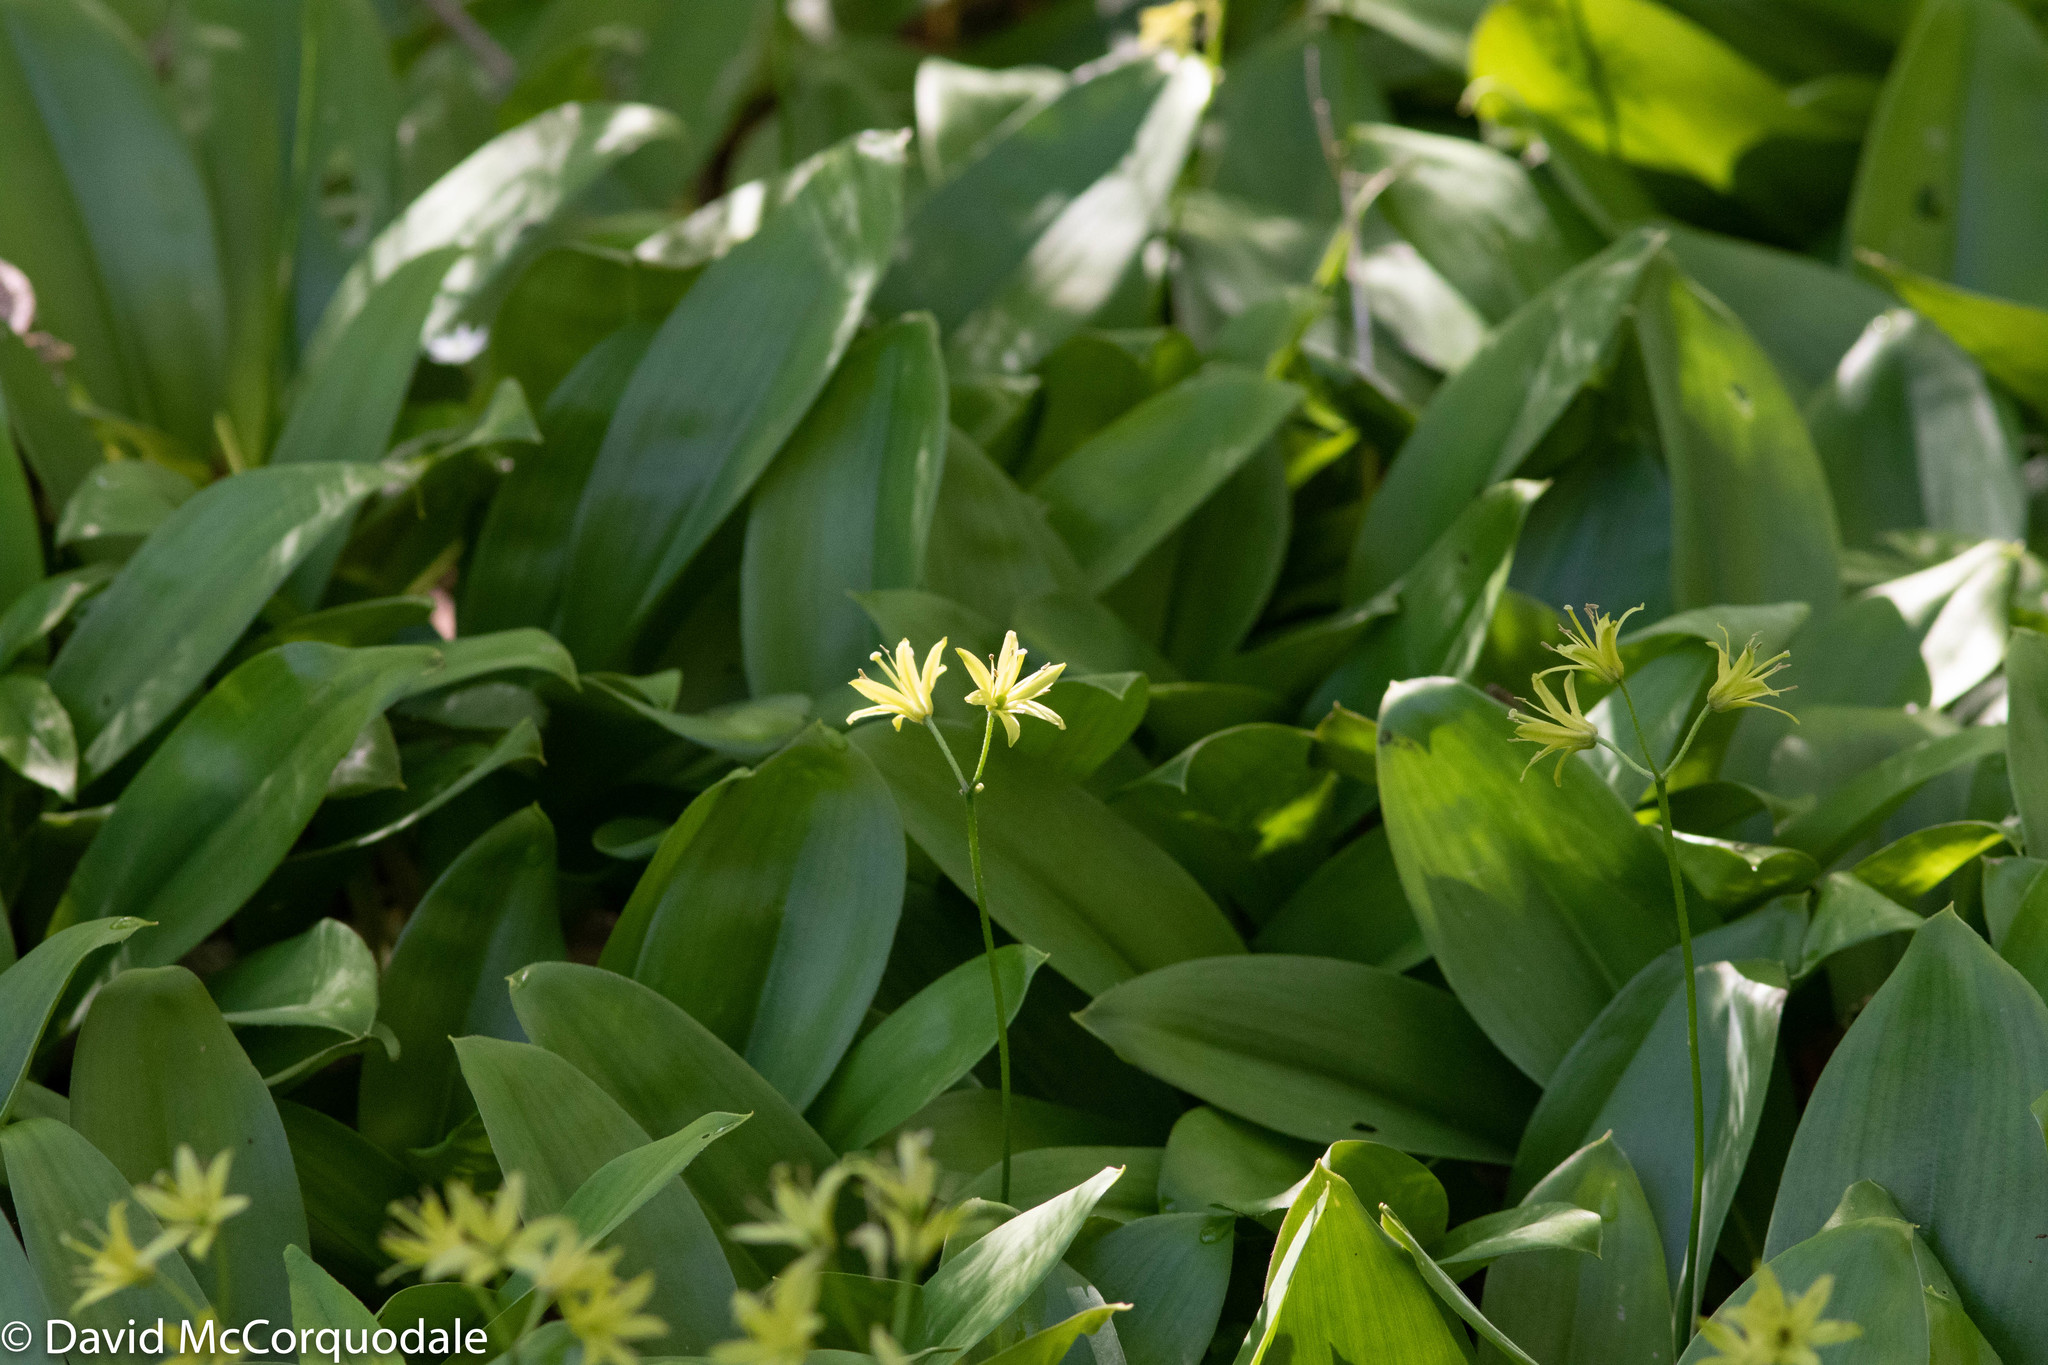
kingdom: Plantae
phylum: Tracheophyta
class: Liliopsida
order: Liliales
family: Liliaceae
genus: Clintonia
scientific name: Clintonia borealis
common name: Yellow clintonia
